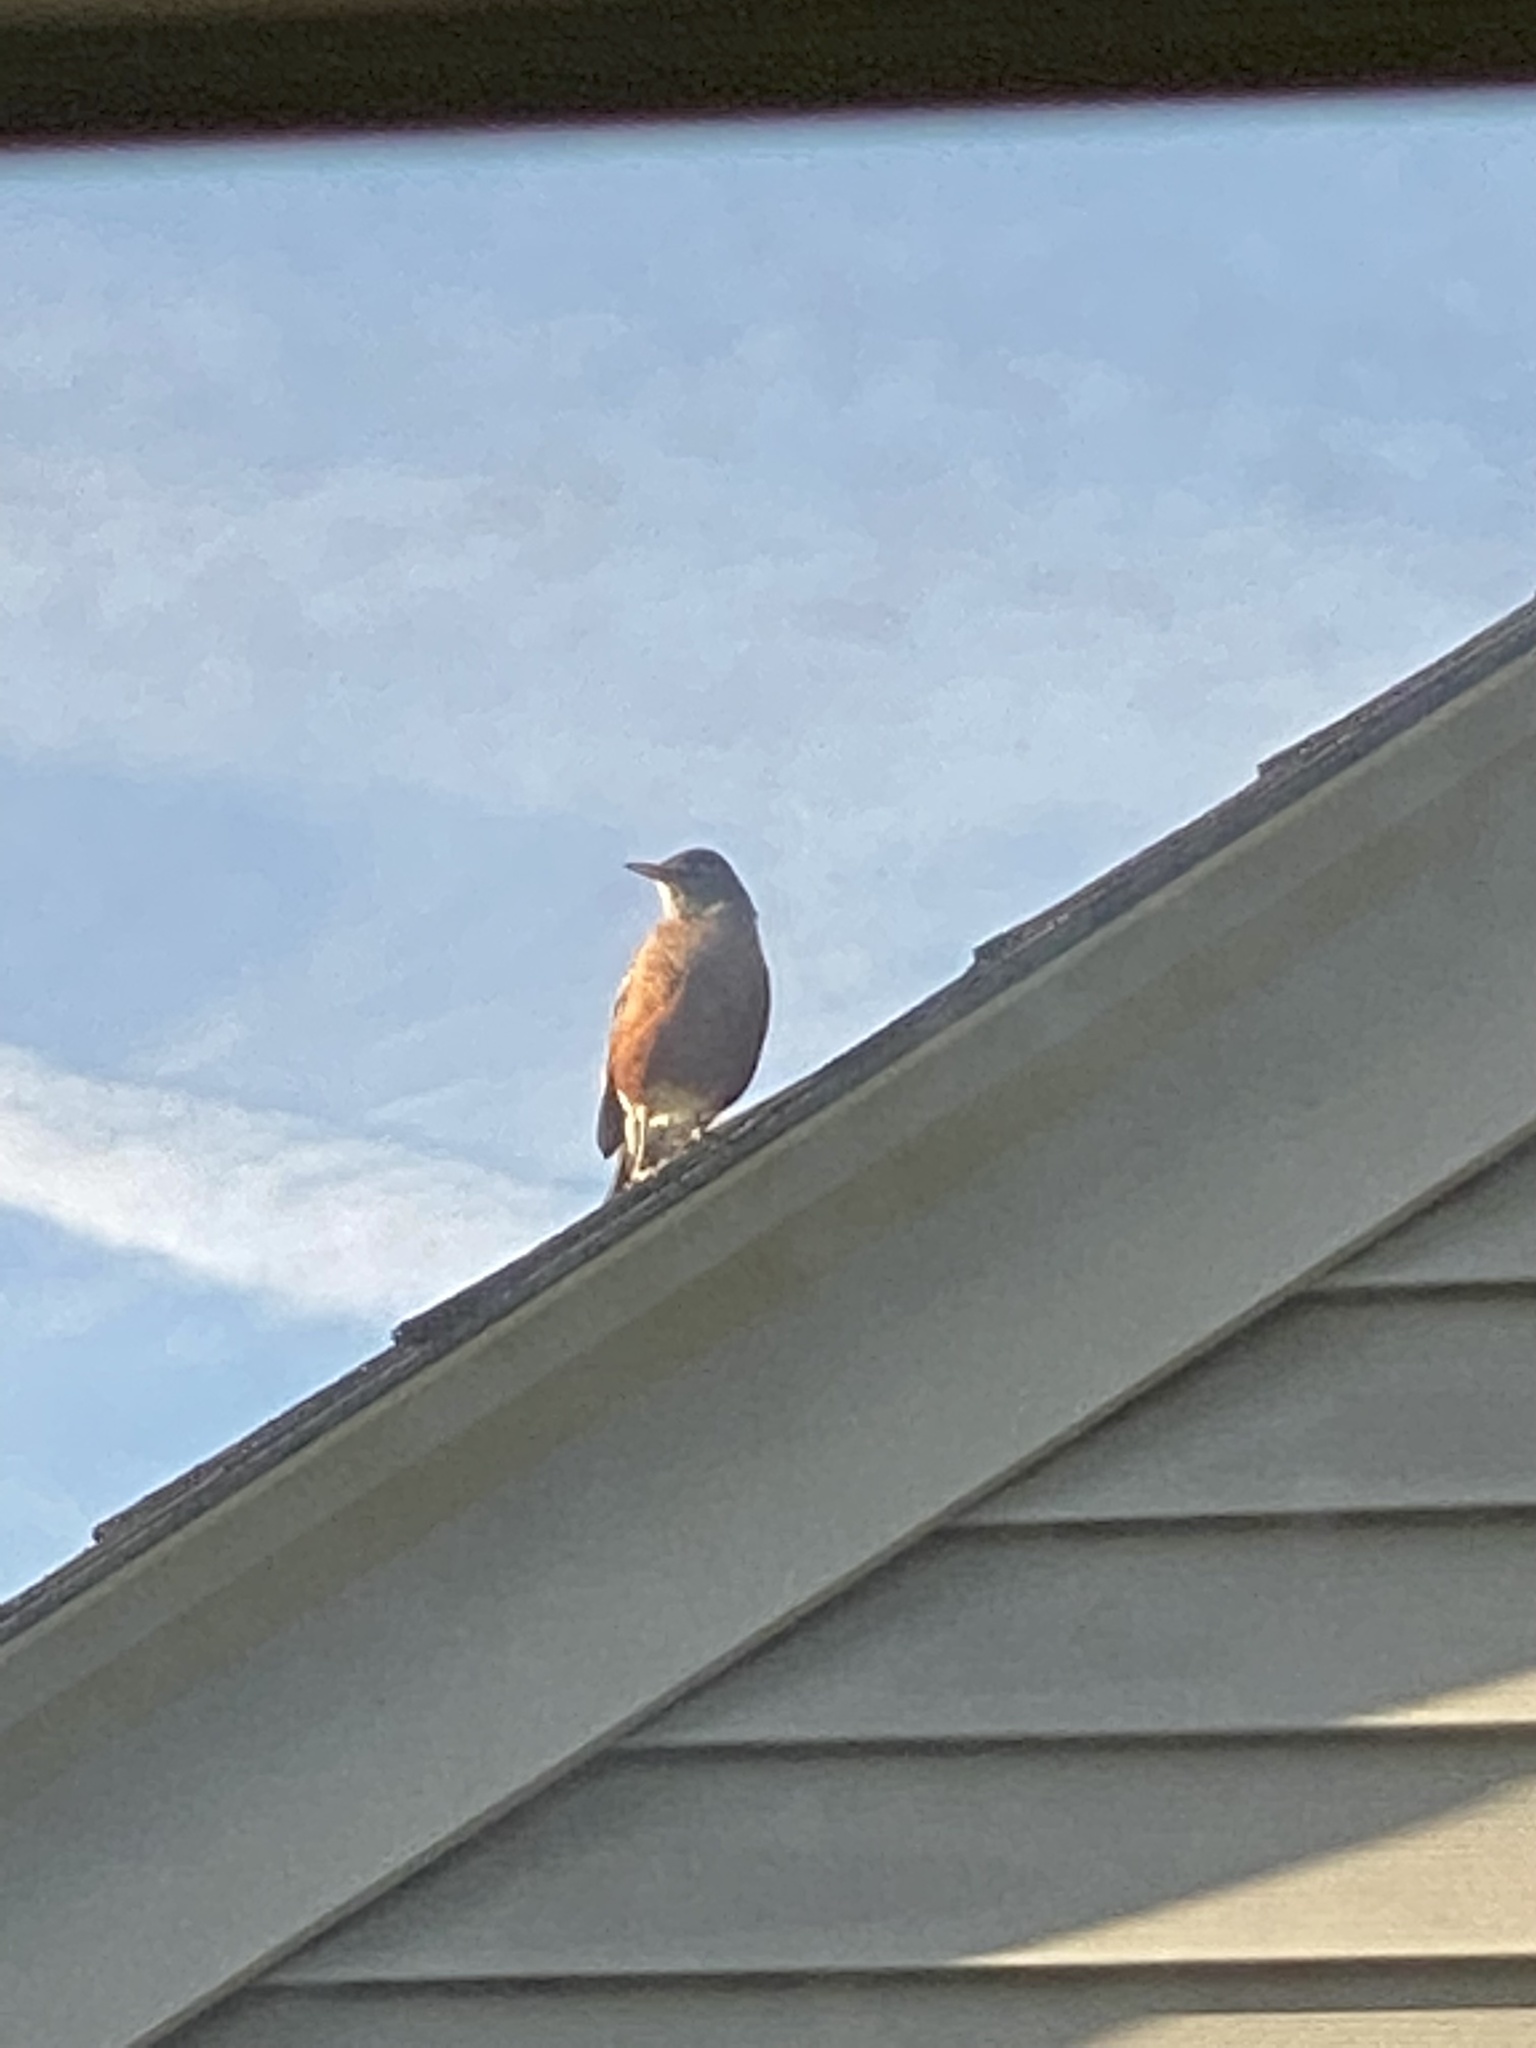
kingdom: Animalia
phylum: Chordata
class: Aves
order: Passeriformes
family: Turdidae
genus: Turdus
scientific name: Turdus migratorius
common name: American robin
